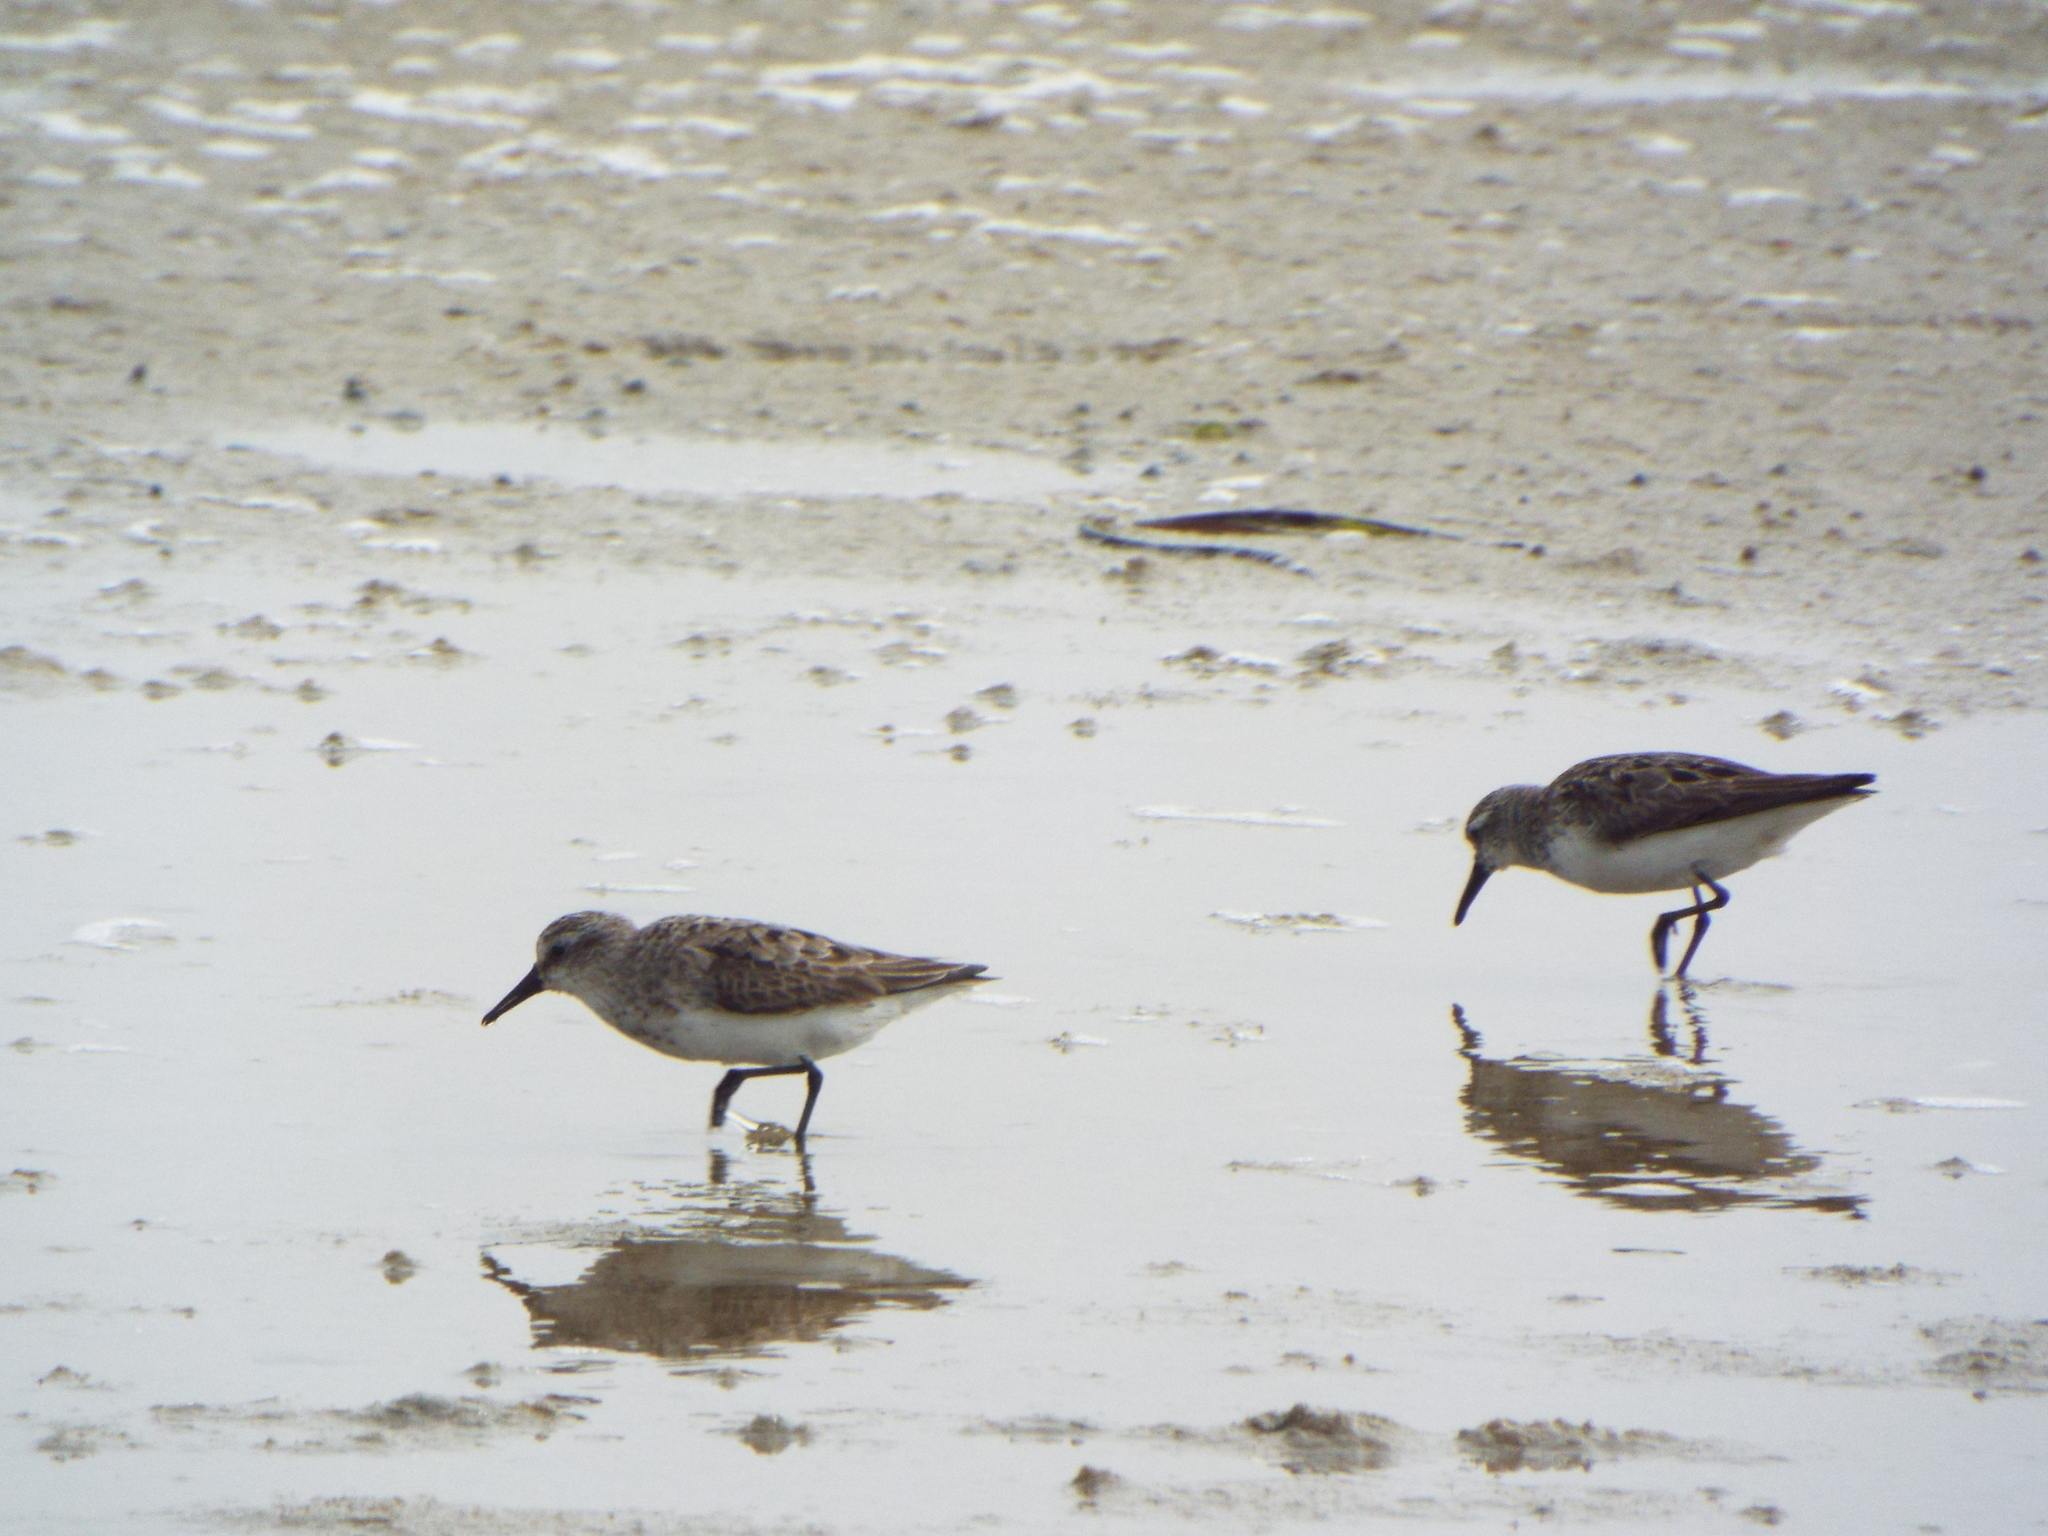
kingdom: Animalia
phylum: Chordata
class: Aves
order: Charadriiformes
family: Scolopacidae
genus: Calidris
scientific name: Calidris pusilla
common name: Semipalmated sandpiper
